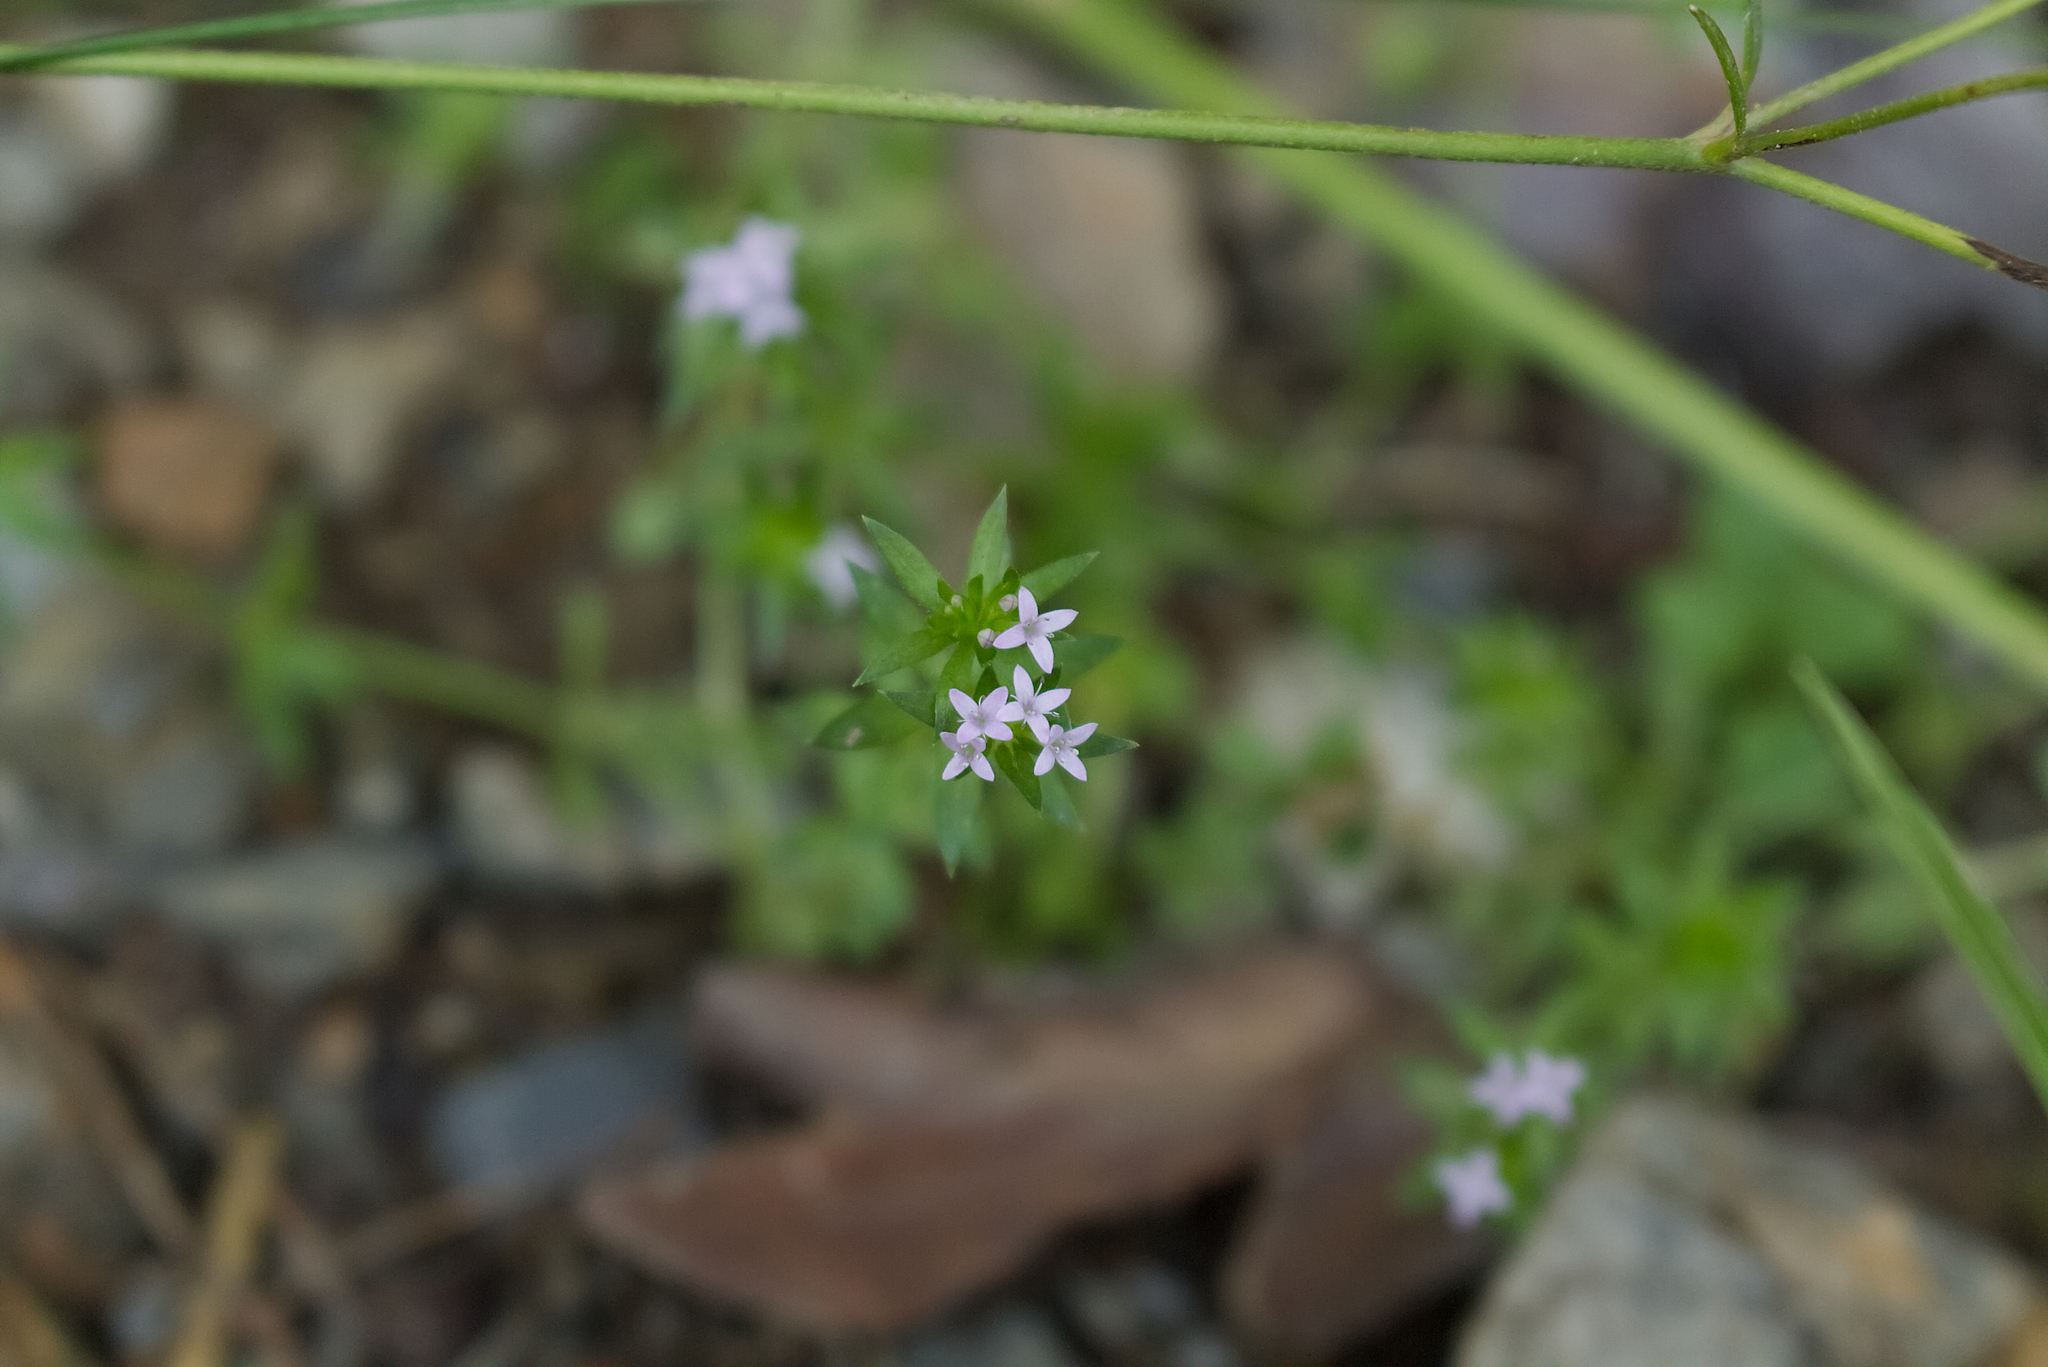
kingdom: Plantae
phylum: Tracheophyta
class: Magnoliopsida
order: Gentianales
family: Rubiaceae
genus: Sherardia
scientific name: Sherardia arvensis
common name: Field madder
